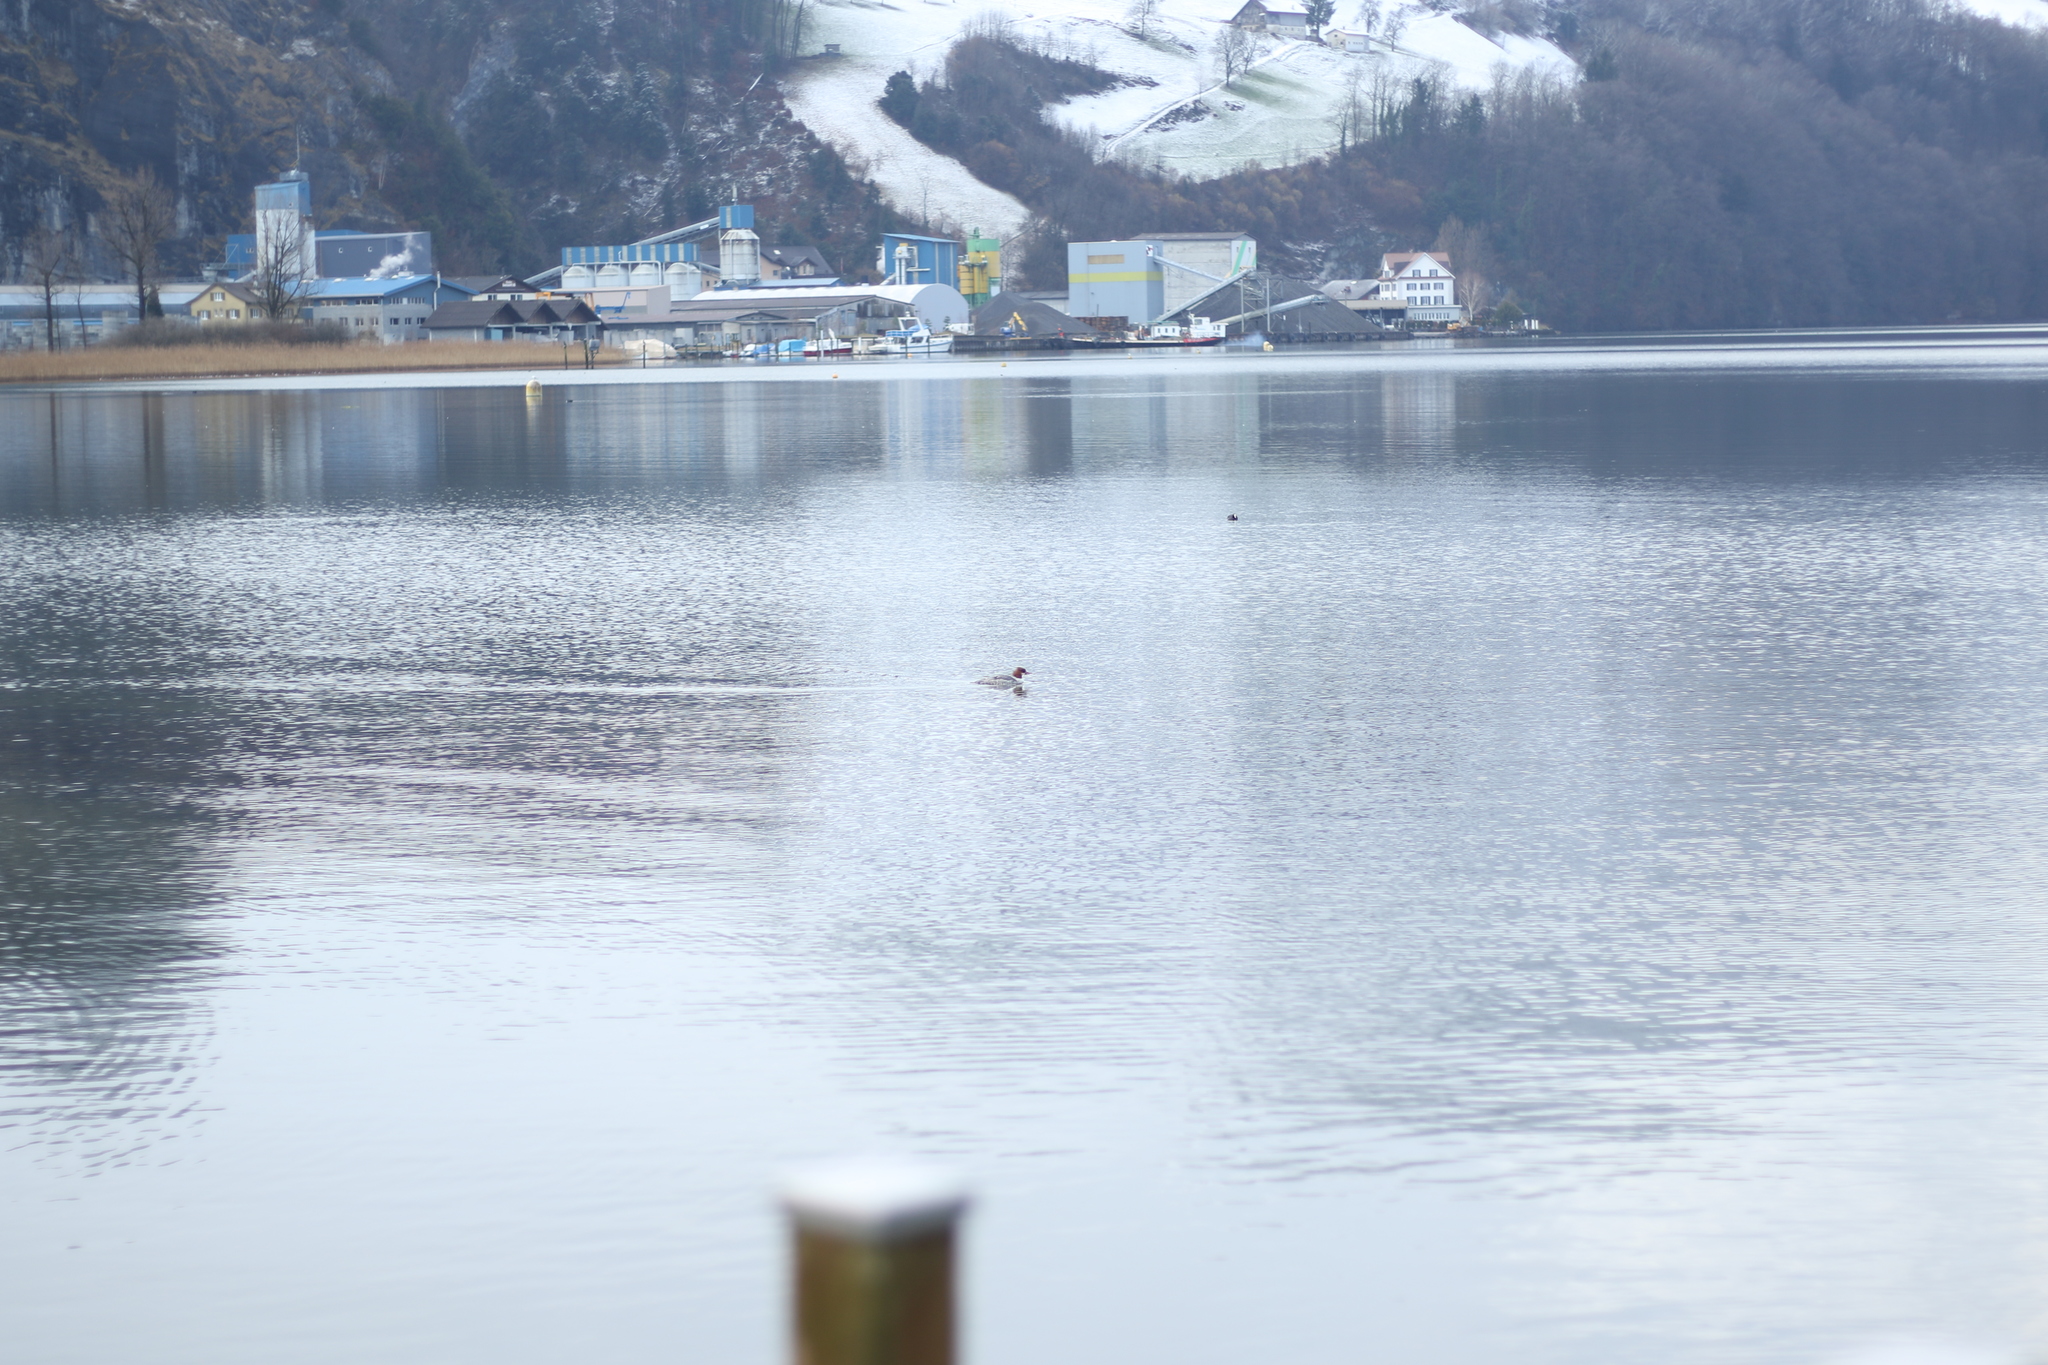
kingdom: Animalia
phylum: Chordata
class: Aves
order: Anseriformes
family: Anatidae
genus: Mergus
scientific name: Mergus merganser
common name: Common merganser
